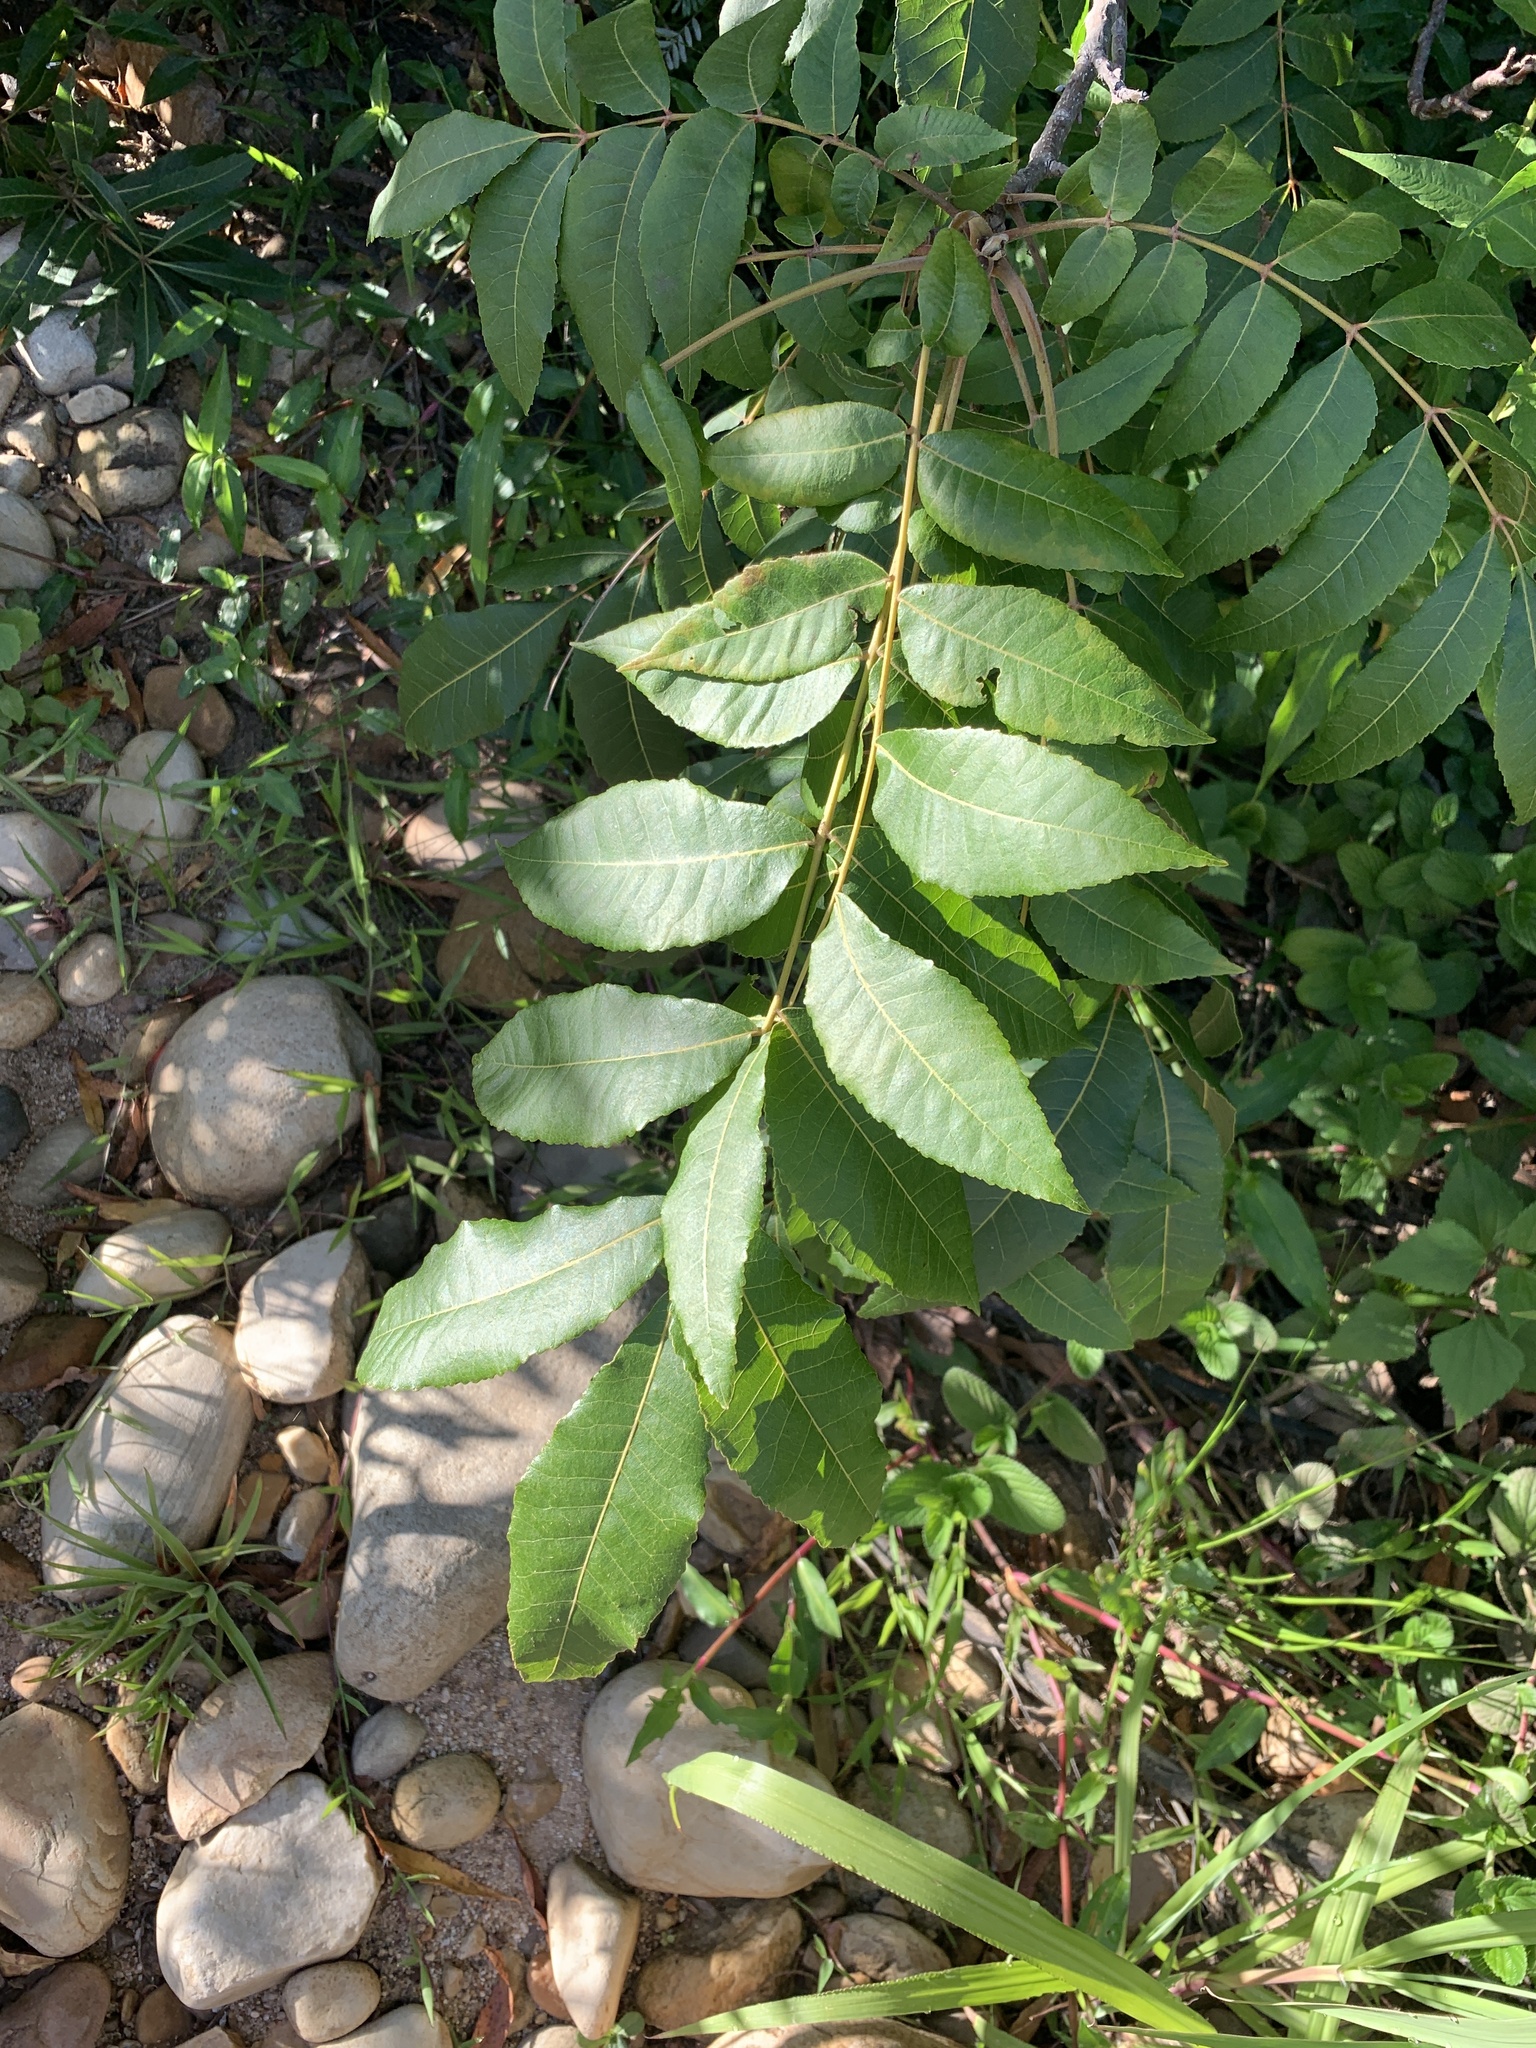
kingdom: Plantae
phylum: Tracheophyta
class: Magnoliopsida
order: Fagales
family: Juglandaceae
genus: Carya
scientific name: Carya illinoinensis
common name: Pecan
